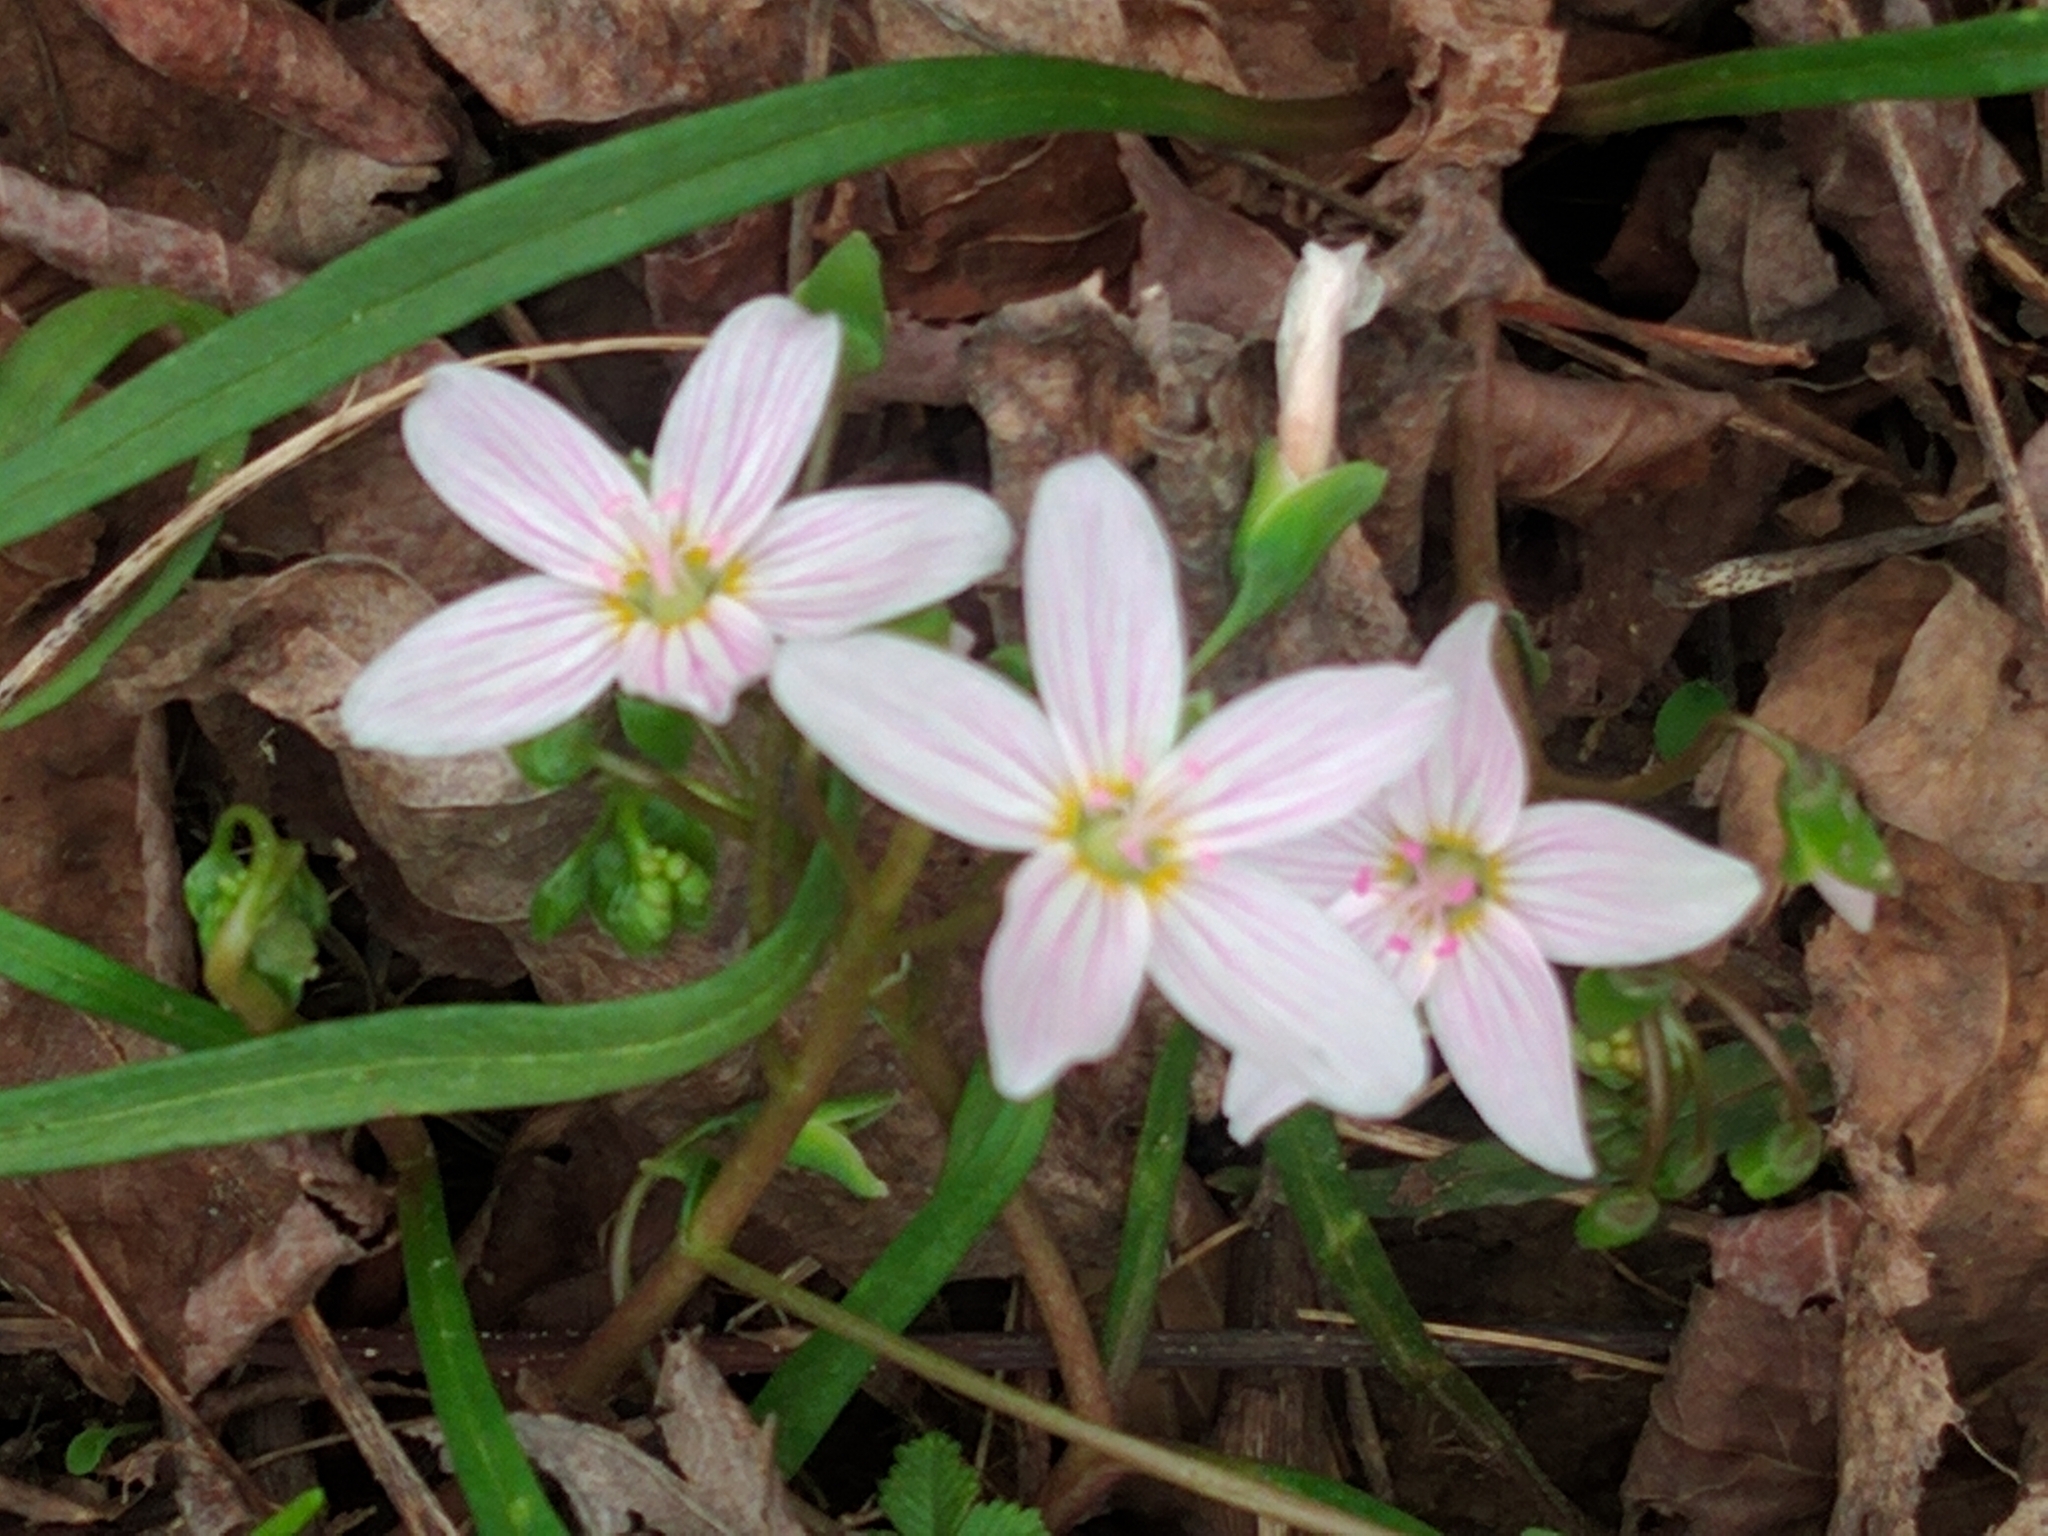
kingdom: Plantae
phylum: Tracheophyta
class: Magnoliopsida
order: Caryophyllales
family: Montiaceae
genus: Claytonia
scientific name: Claytonia virginica
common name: Virginia springbeauty
